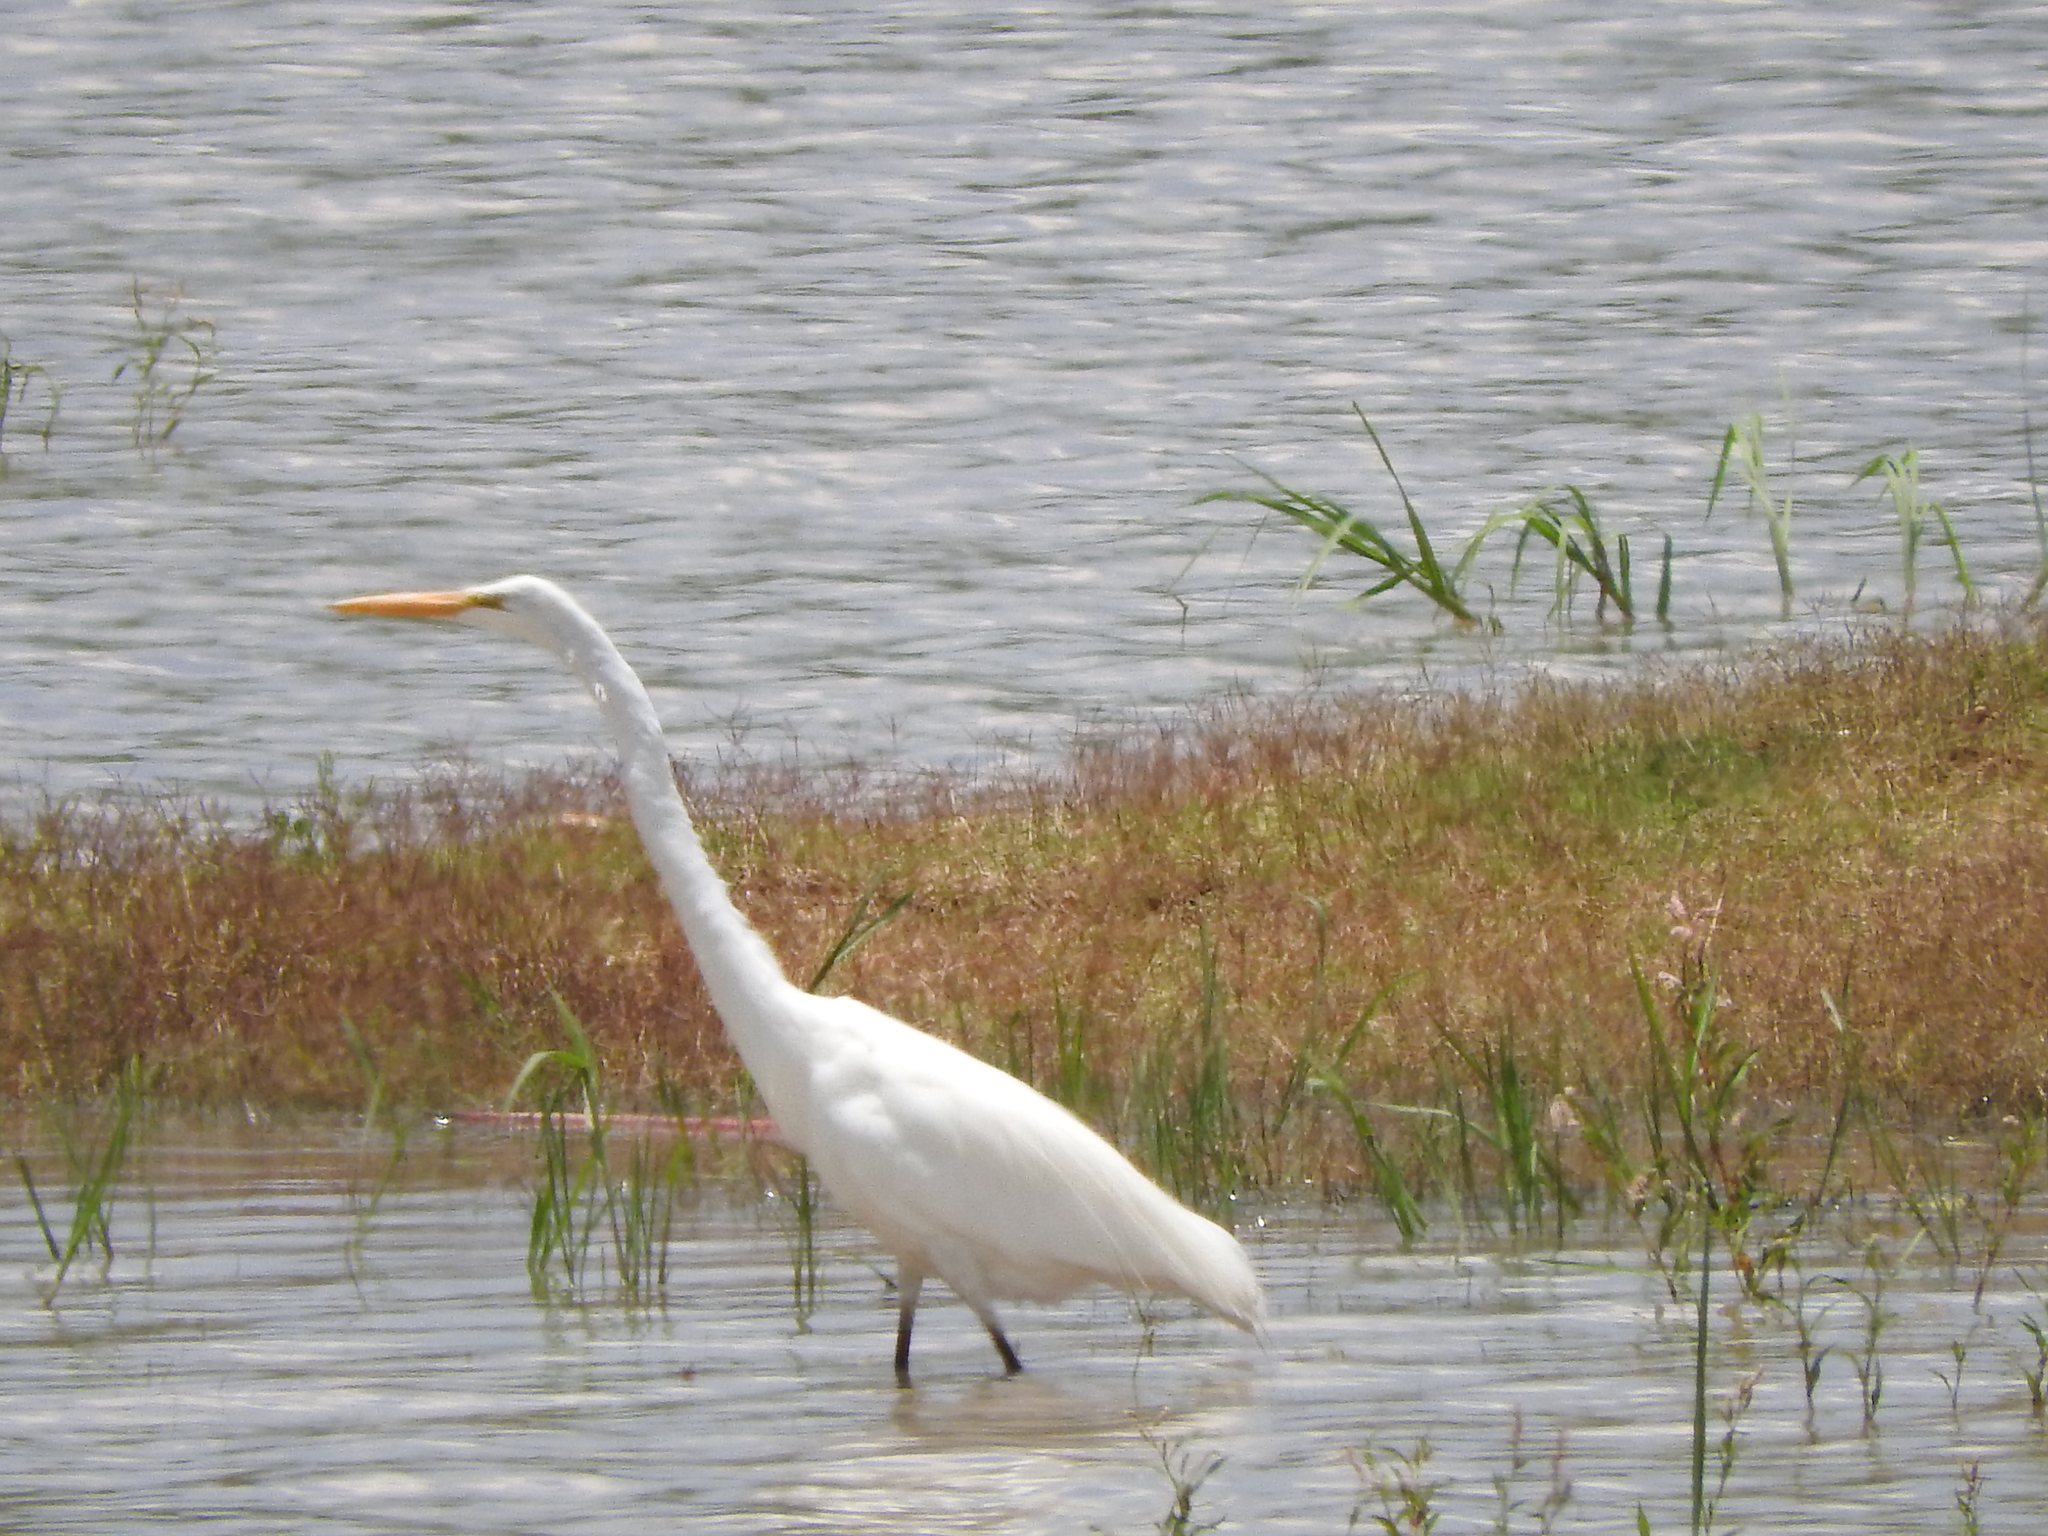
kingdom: Animalia
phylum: Chordata
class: Aves
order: Pelecaniformes
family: Ardeidae
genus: Ardea
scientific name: Ardea alba
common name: Great egret
